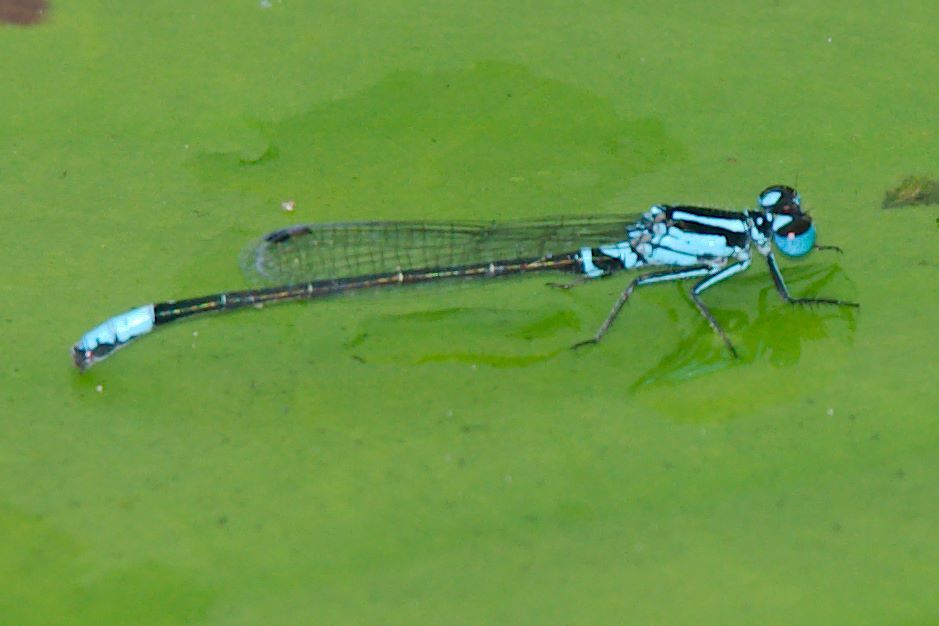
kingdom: Animalia
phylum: Arthropoda
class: Insecta
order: Odonata
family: Coenagrionidae
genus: Ischnura
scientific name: Ischnura kellicotti
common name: Lilypad forktail
